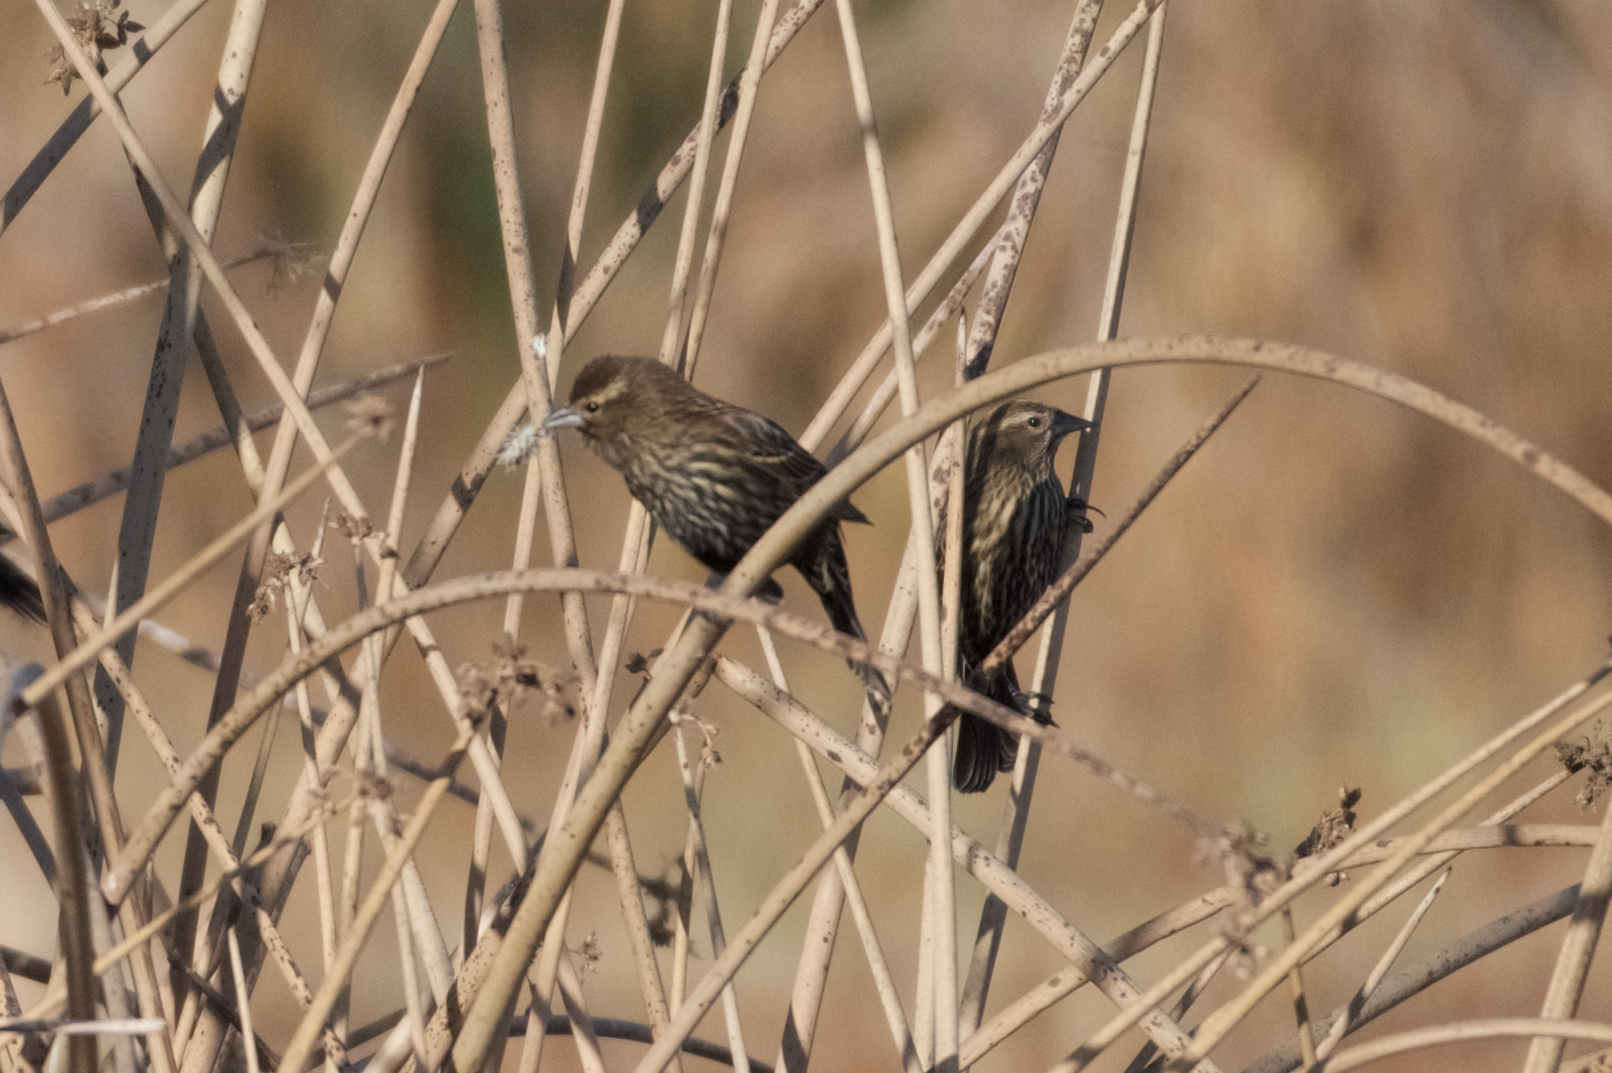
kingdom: Animalia
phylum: Chordata
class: Aves
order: Passeriformes
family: Icteridae
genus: Agelaius
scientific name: Agelaius phoeniceus
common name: Red-winged blackbird
